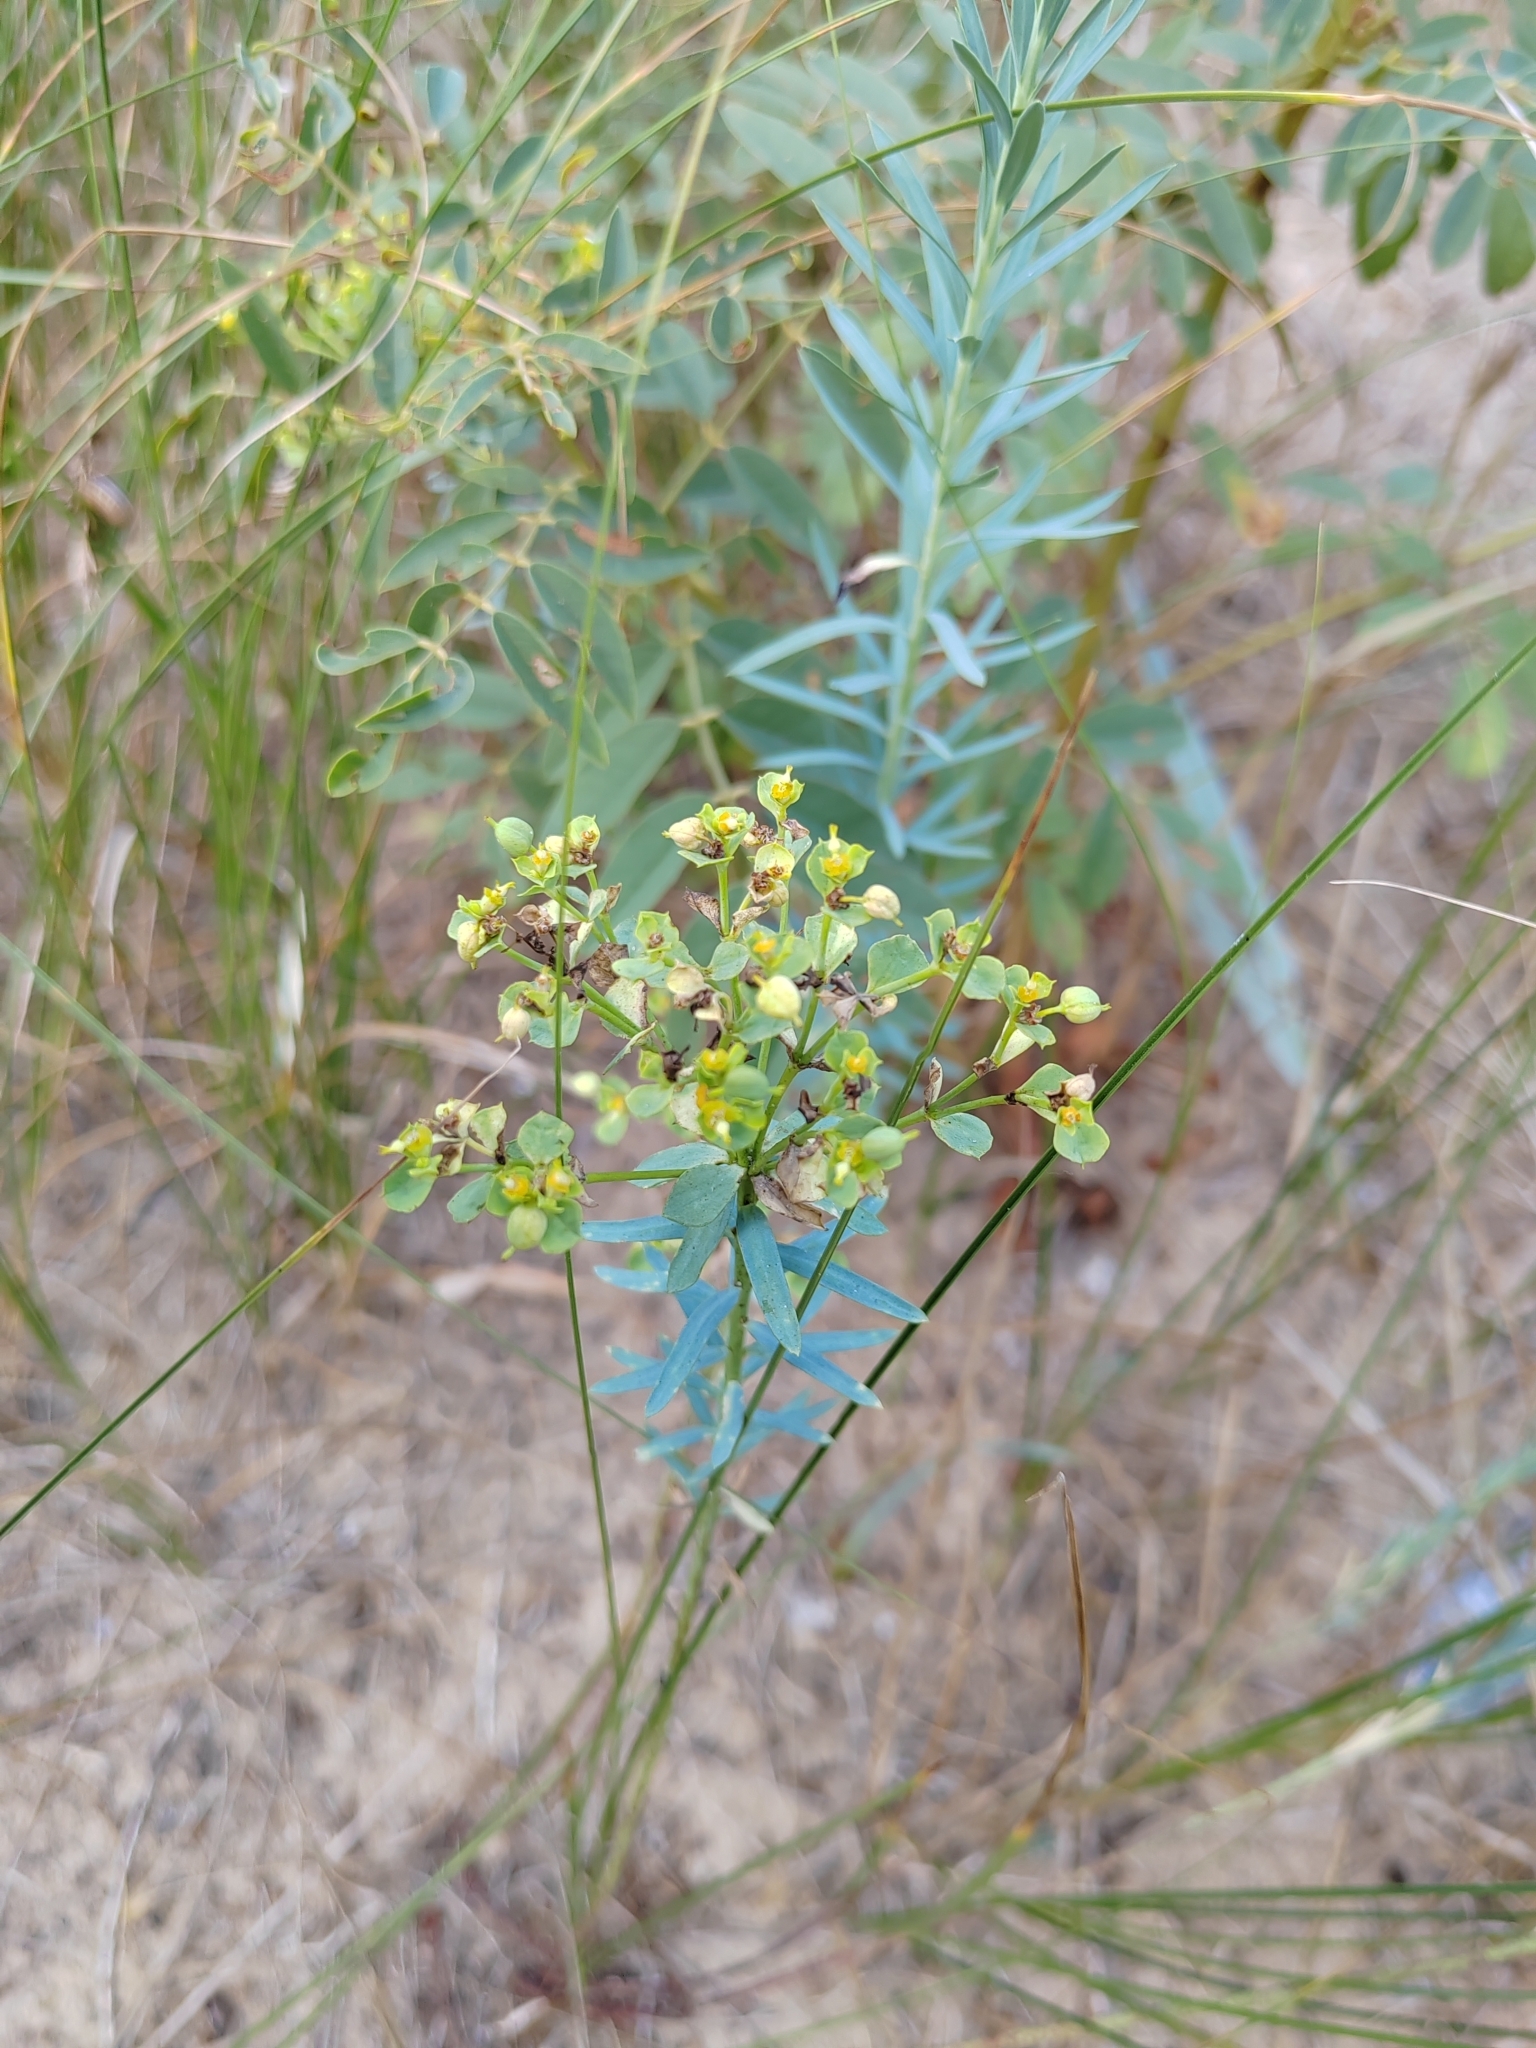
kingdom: Plantae
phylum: Tracheophyta
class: Magnoliopsida
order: Malpighiales
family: Euphorbiaceae
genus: Euphorbia
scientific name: Euphorbia seguieriana
